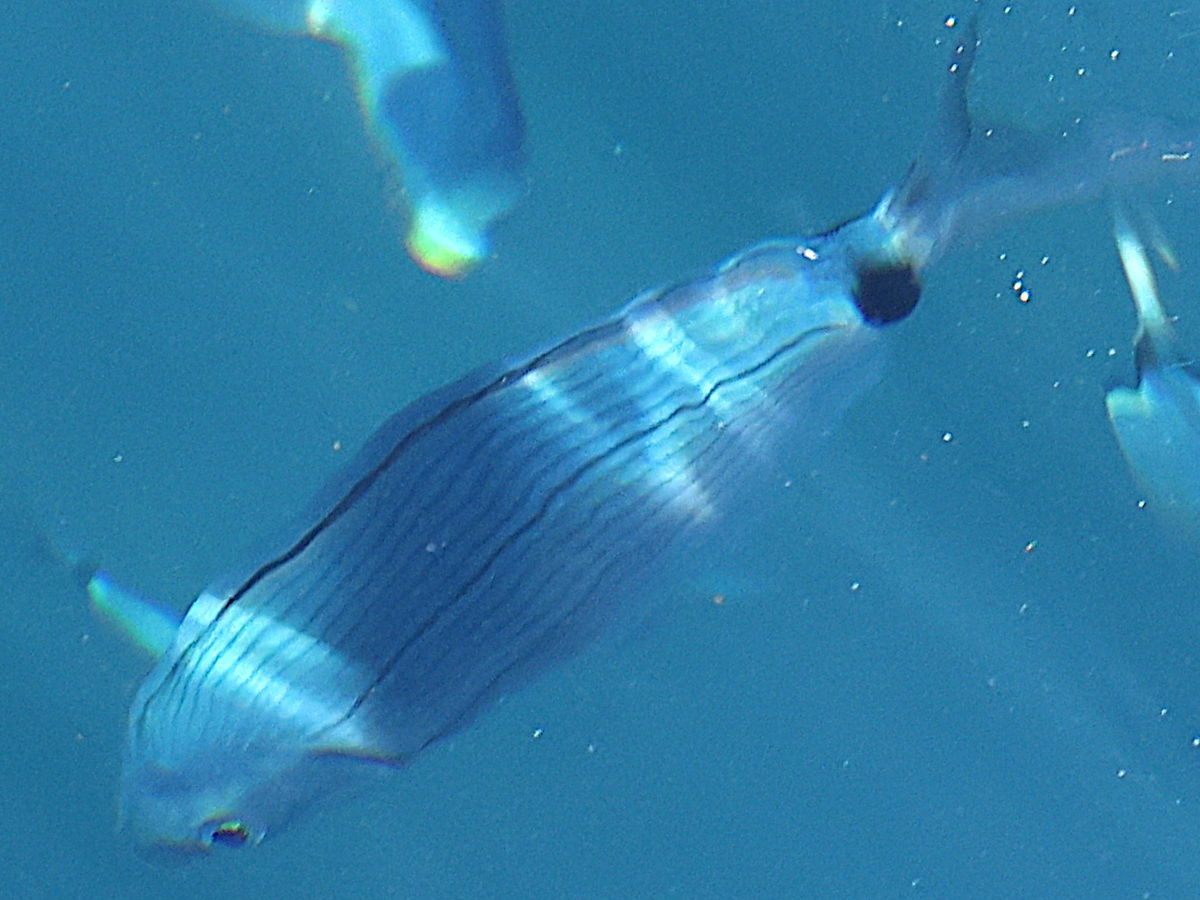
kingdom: Animalia
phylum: Chordata
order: Perciformes
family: Sparidae
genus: Oblada
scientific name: Oblada melanura
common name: Saddled seabream
